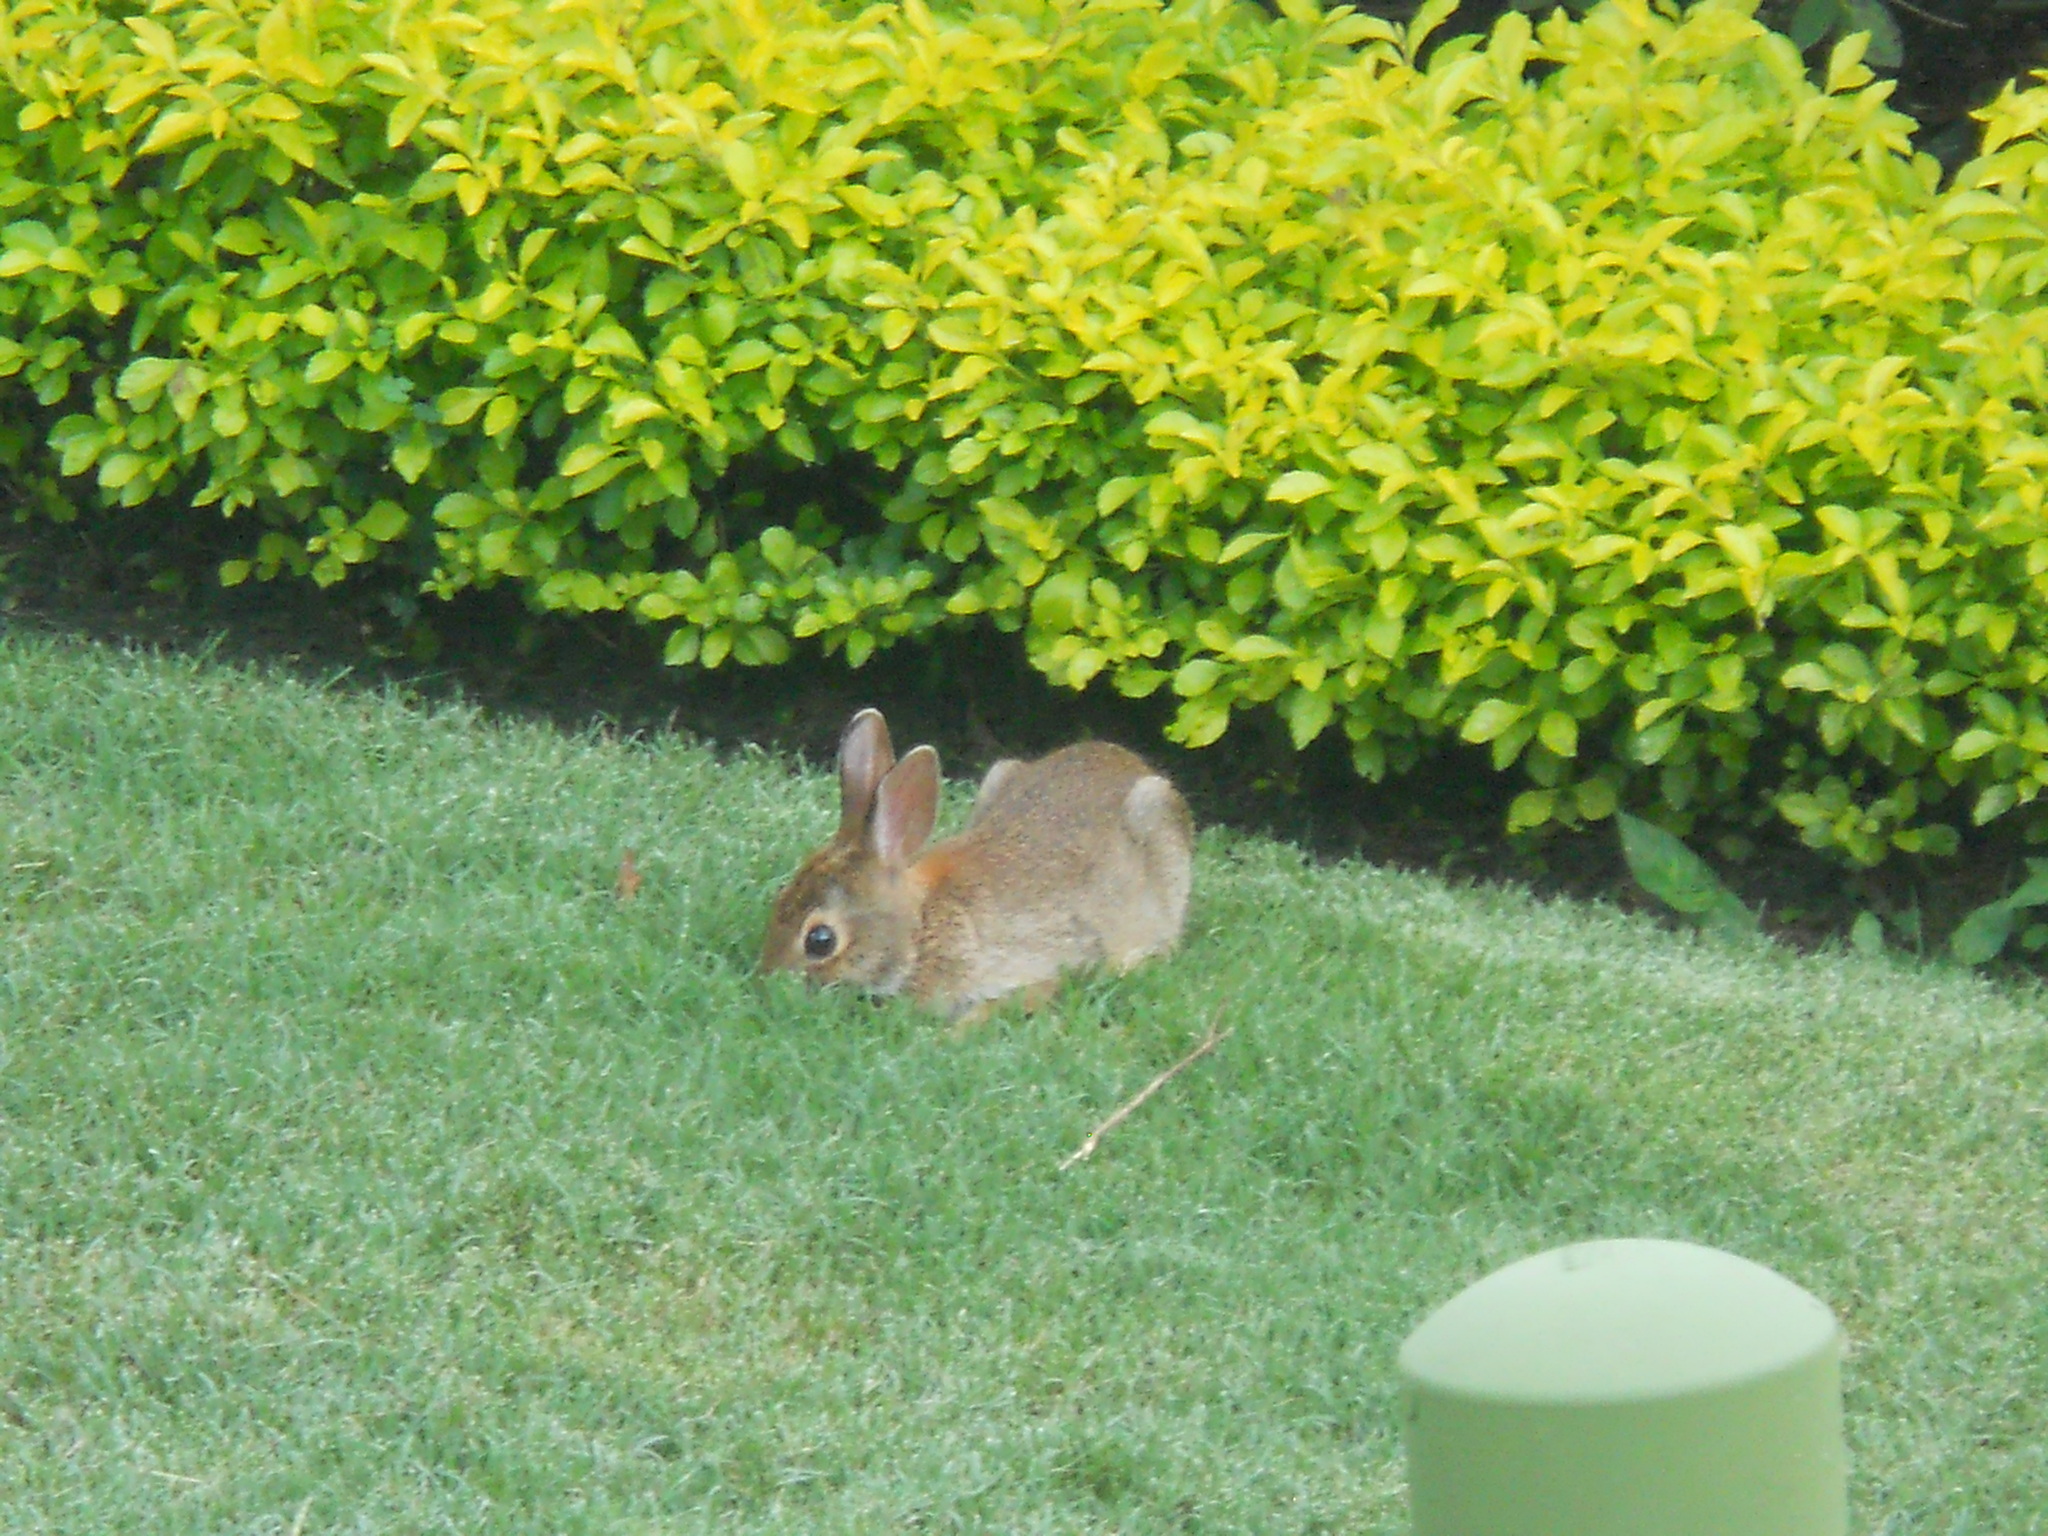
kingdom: Animalia
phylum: Chordata
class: Mammalia
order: Lagomorpha
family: Leporidae
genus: Sylvilagus
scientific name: Sylvilagus floridanus
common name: Eastern cottontail
